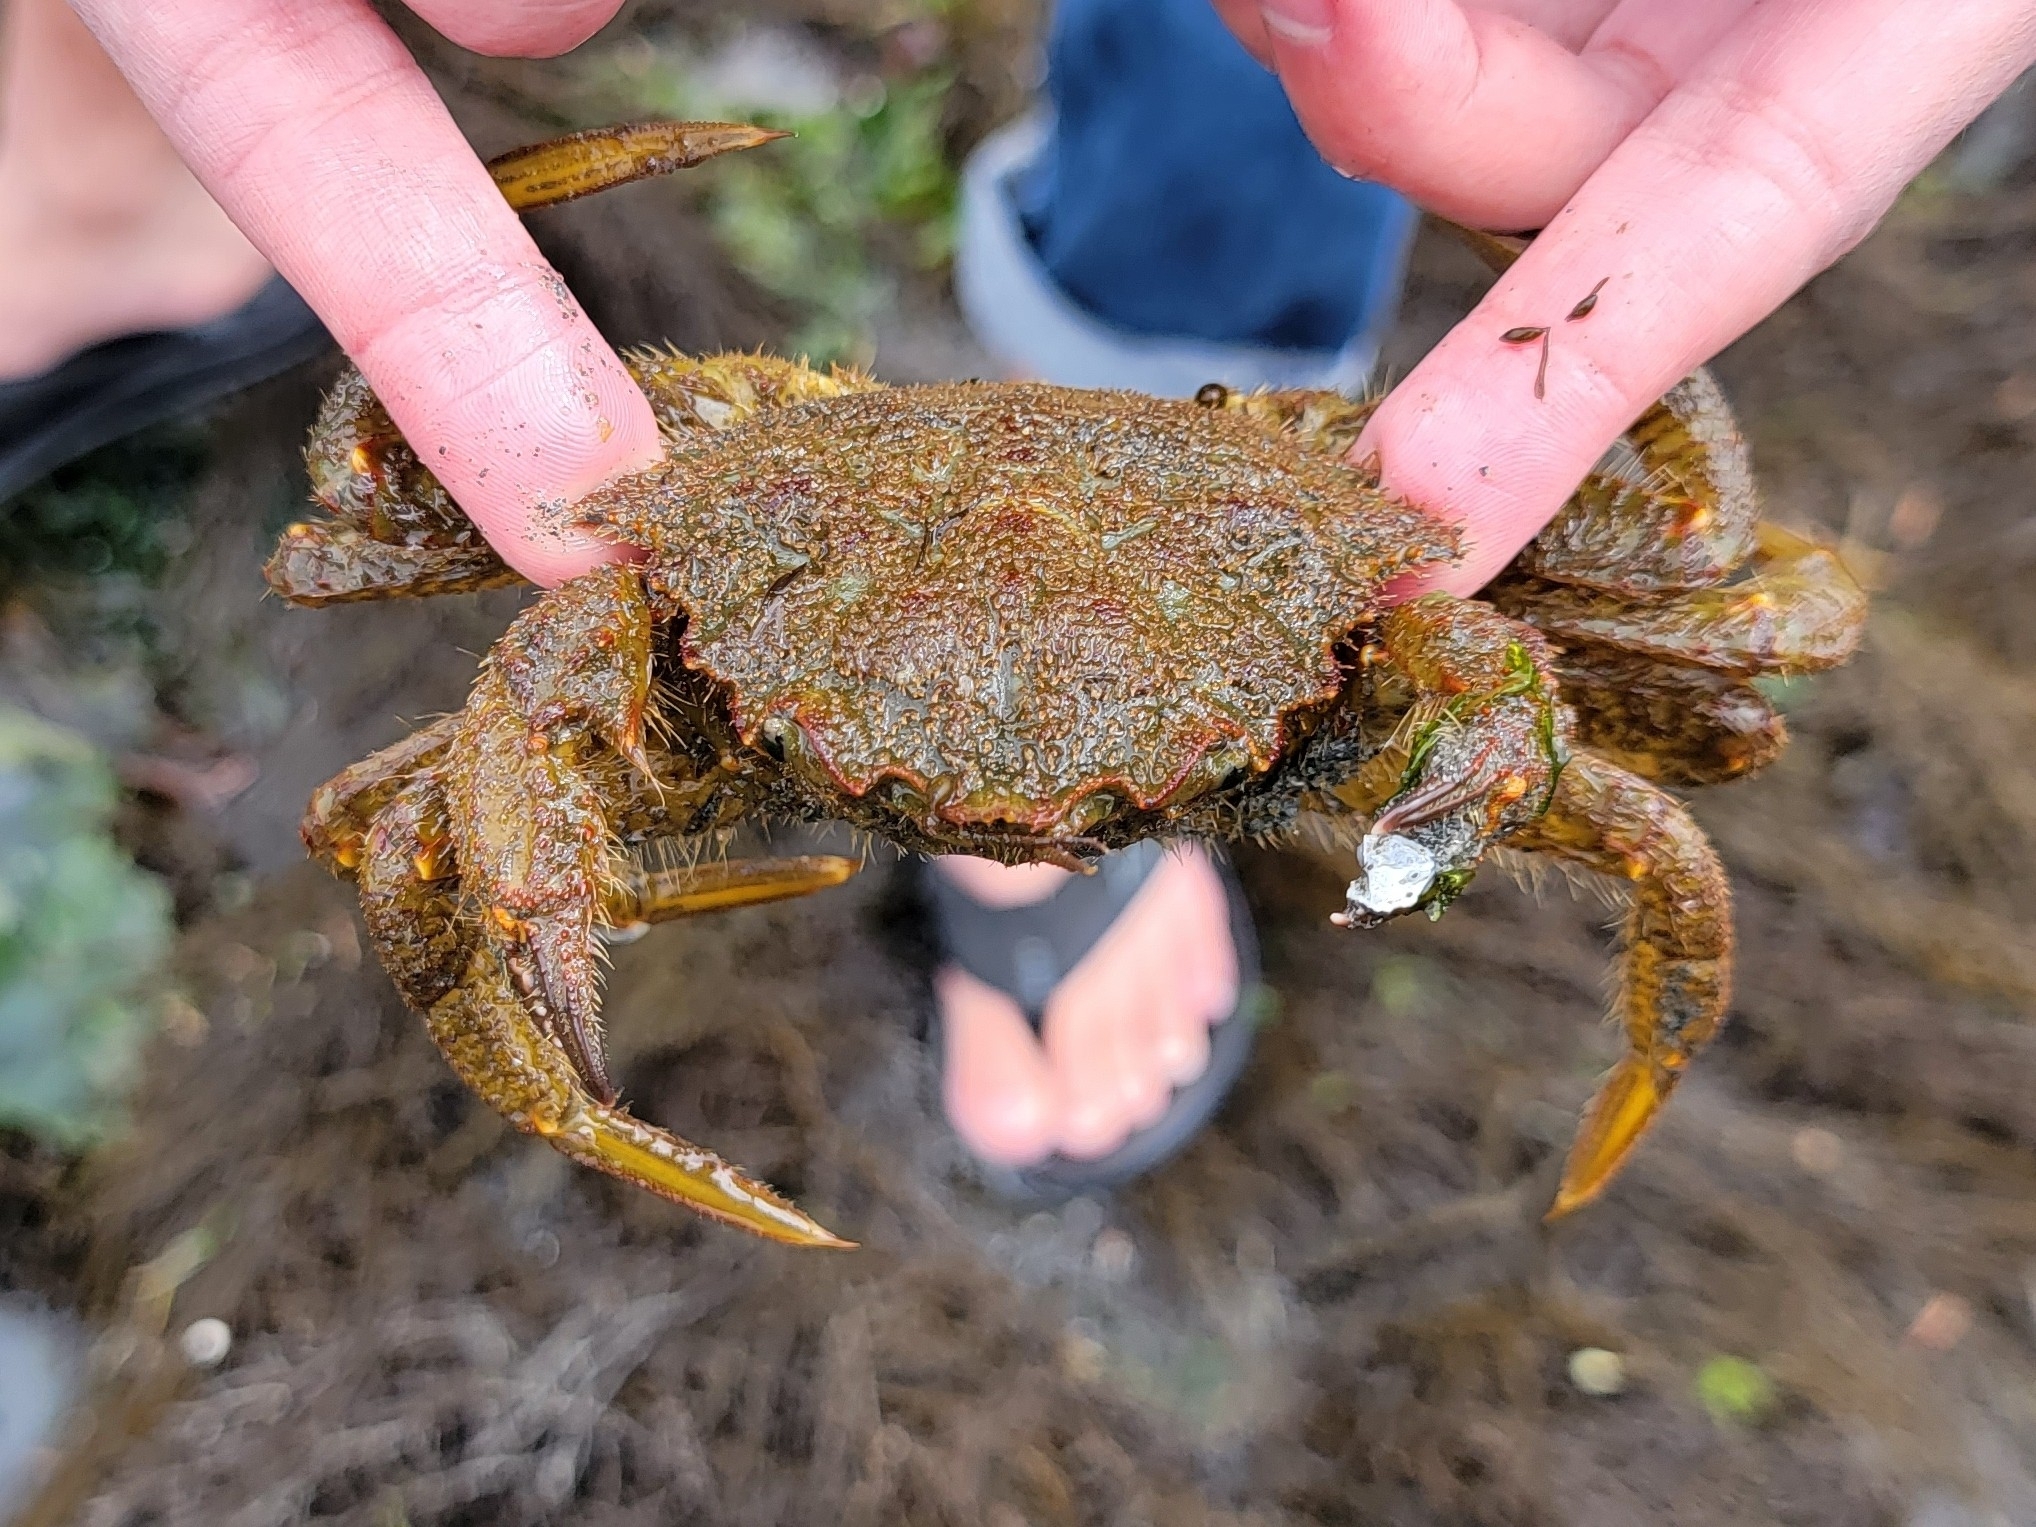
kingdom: Animalia
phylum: Arthropoda
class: Malacostraca
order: Decapoda
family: Cheiragonidae
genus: Telmessus
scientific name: Telmessus cheiragonus
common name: Helmet crab
